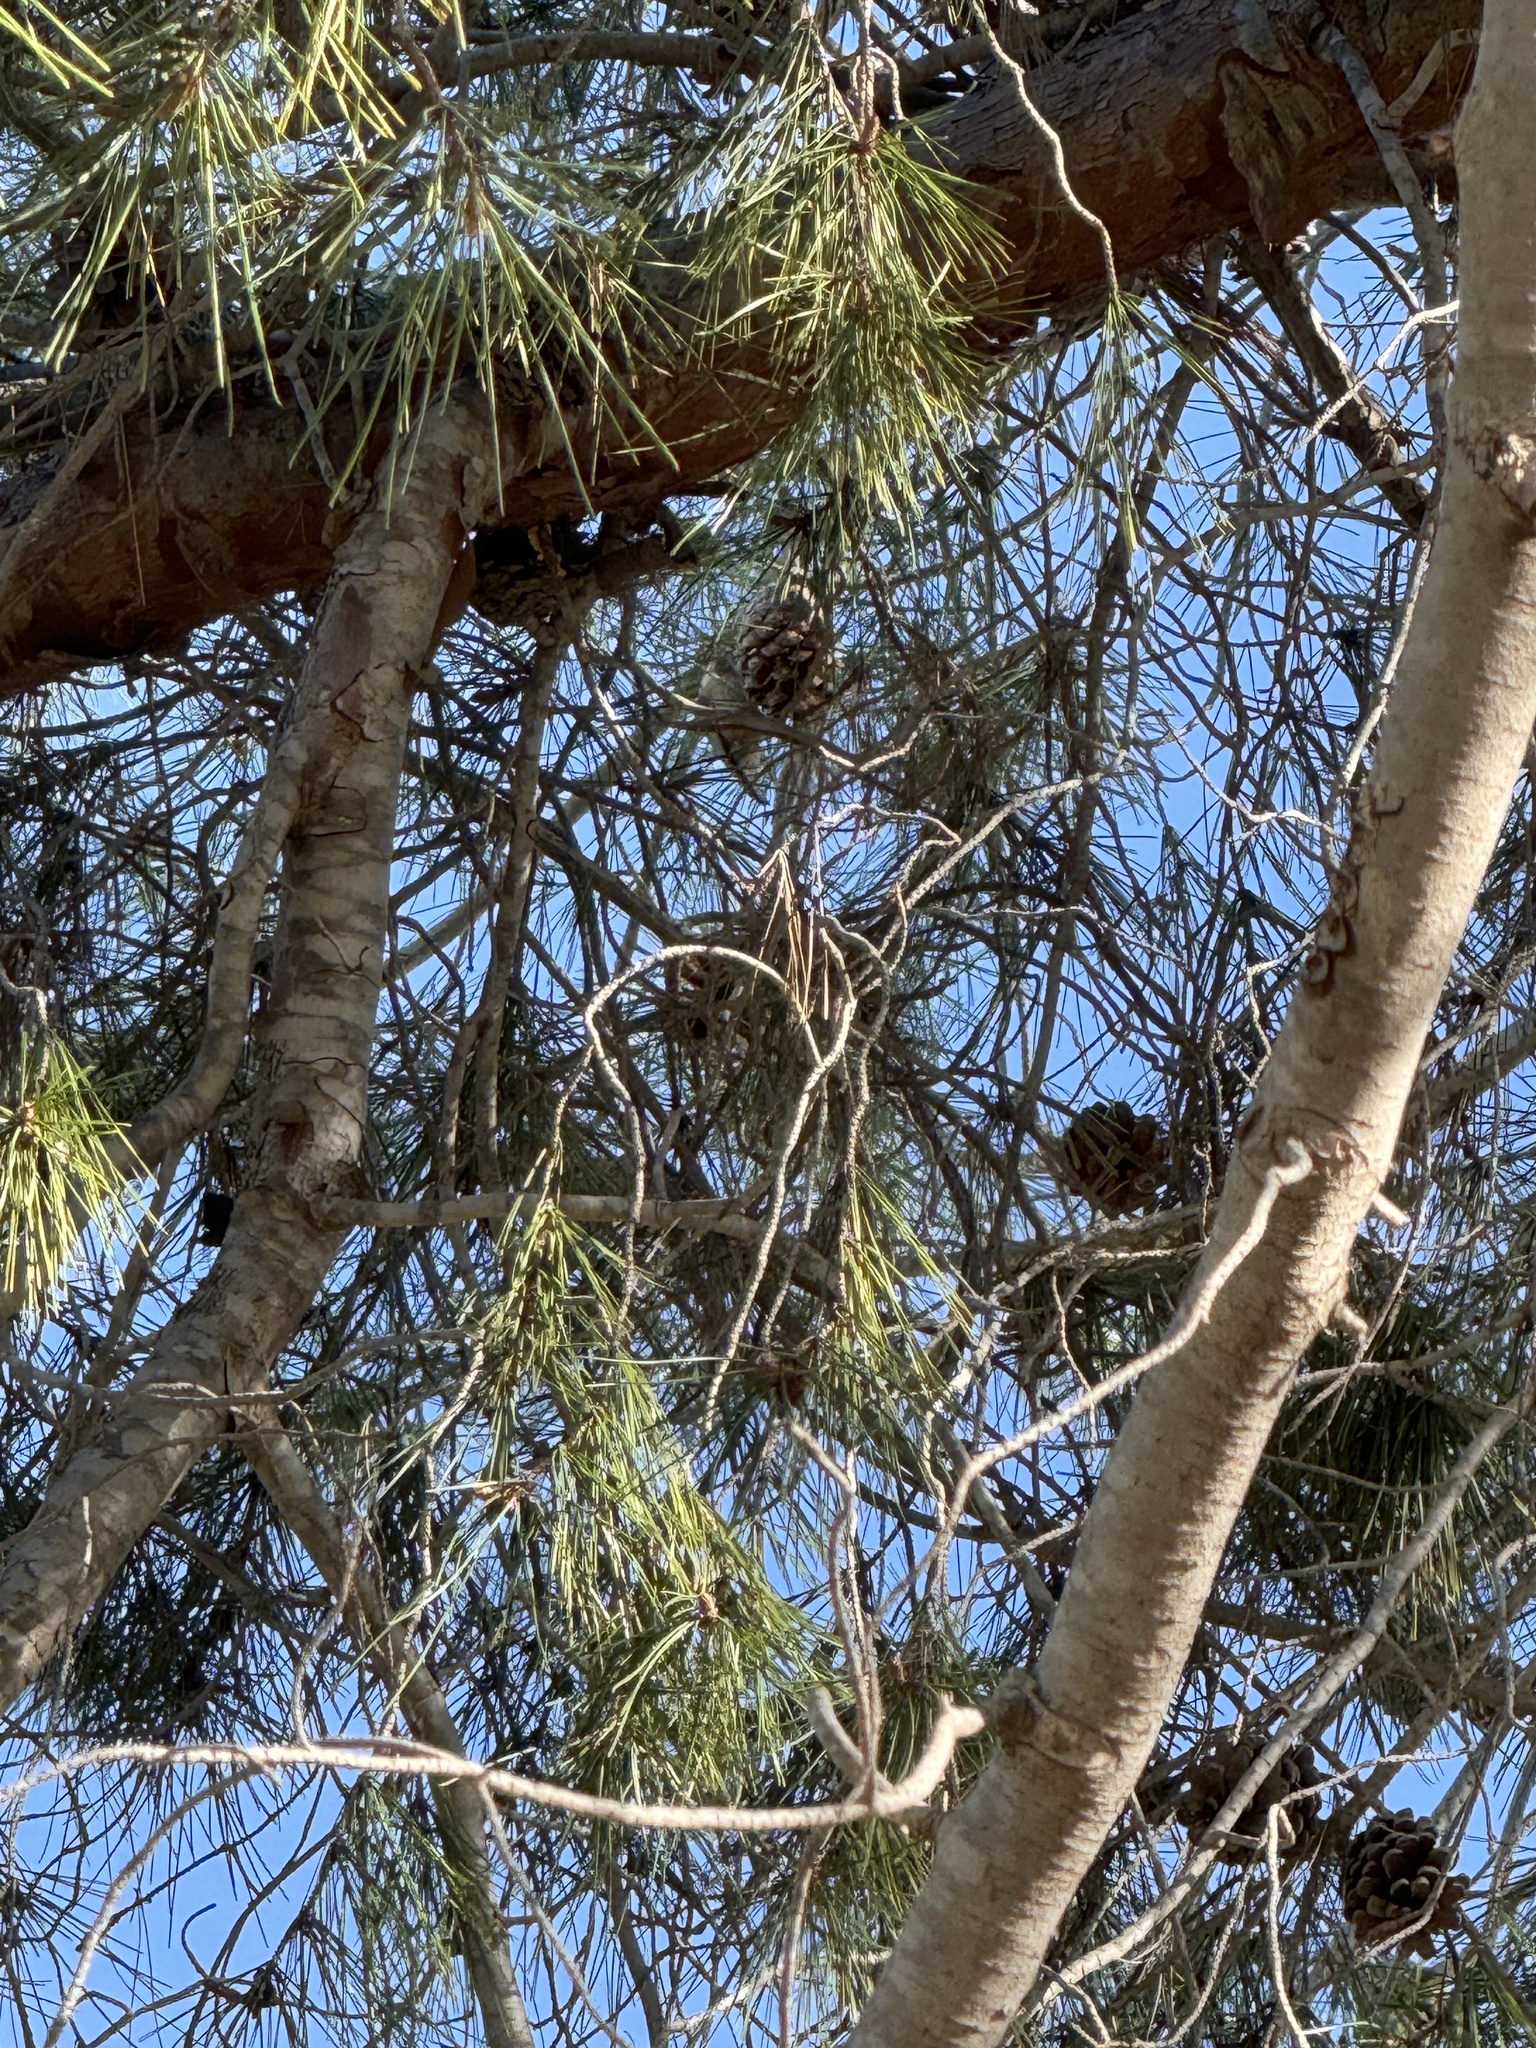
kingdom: Animalia
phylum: Chordata
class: Aves
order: Passeriformes
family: Sittidae
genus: Sitta
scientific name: Sitta canadensis
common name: Red-breasted nuthatch
